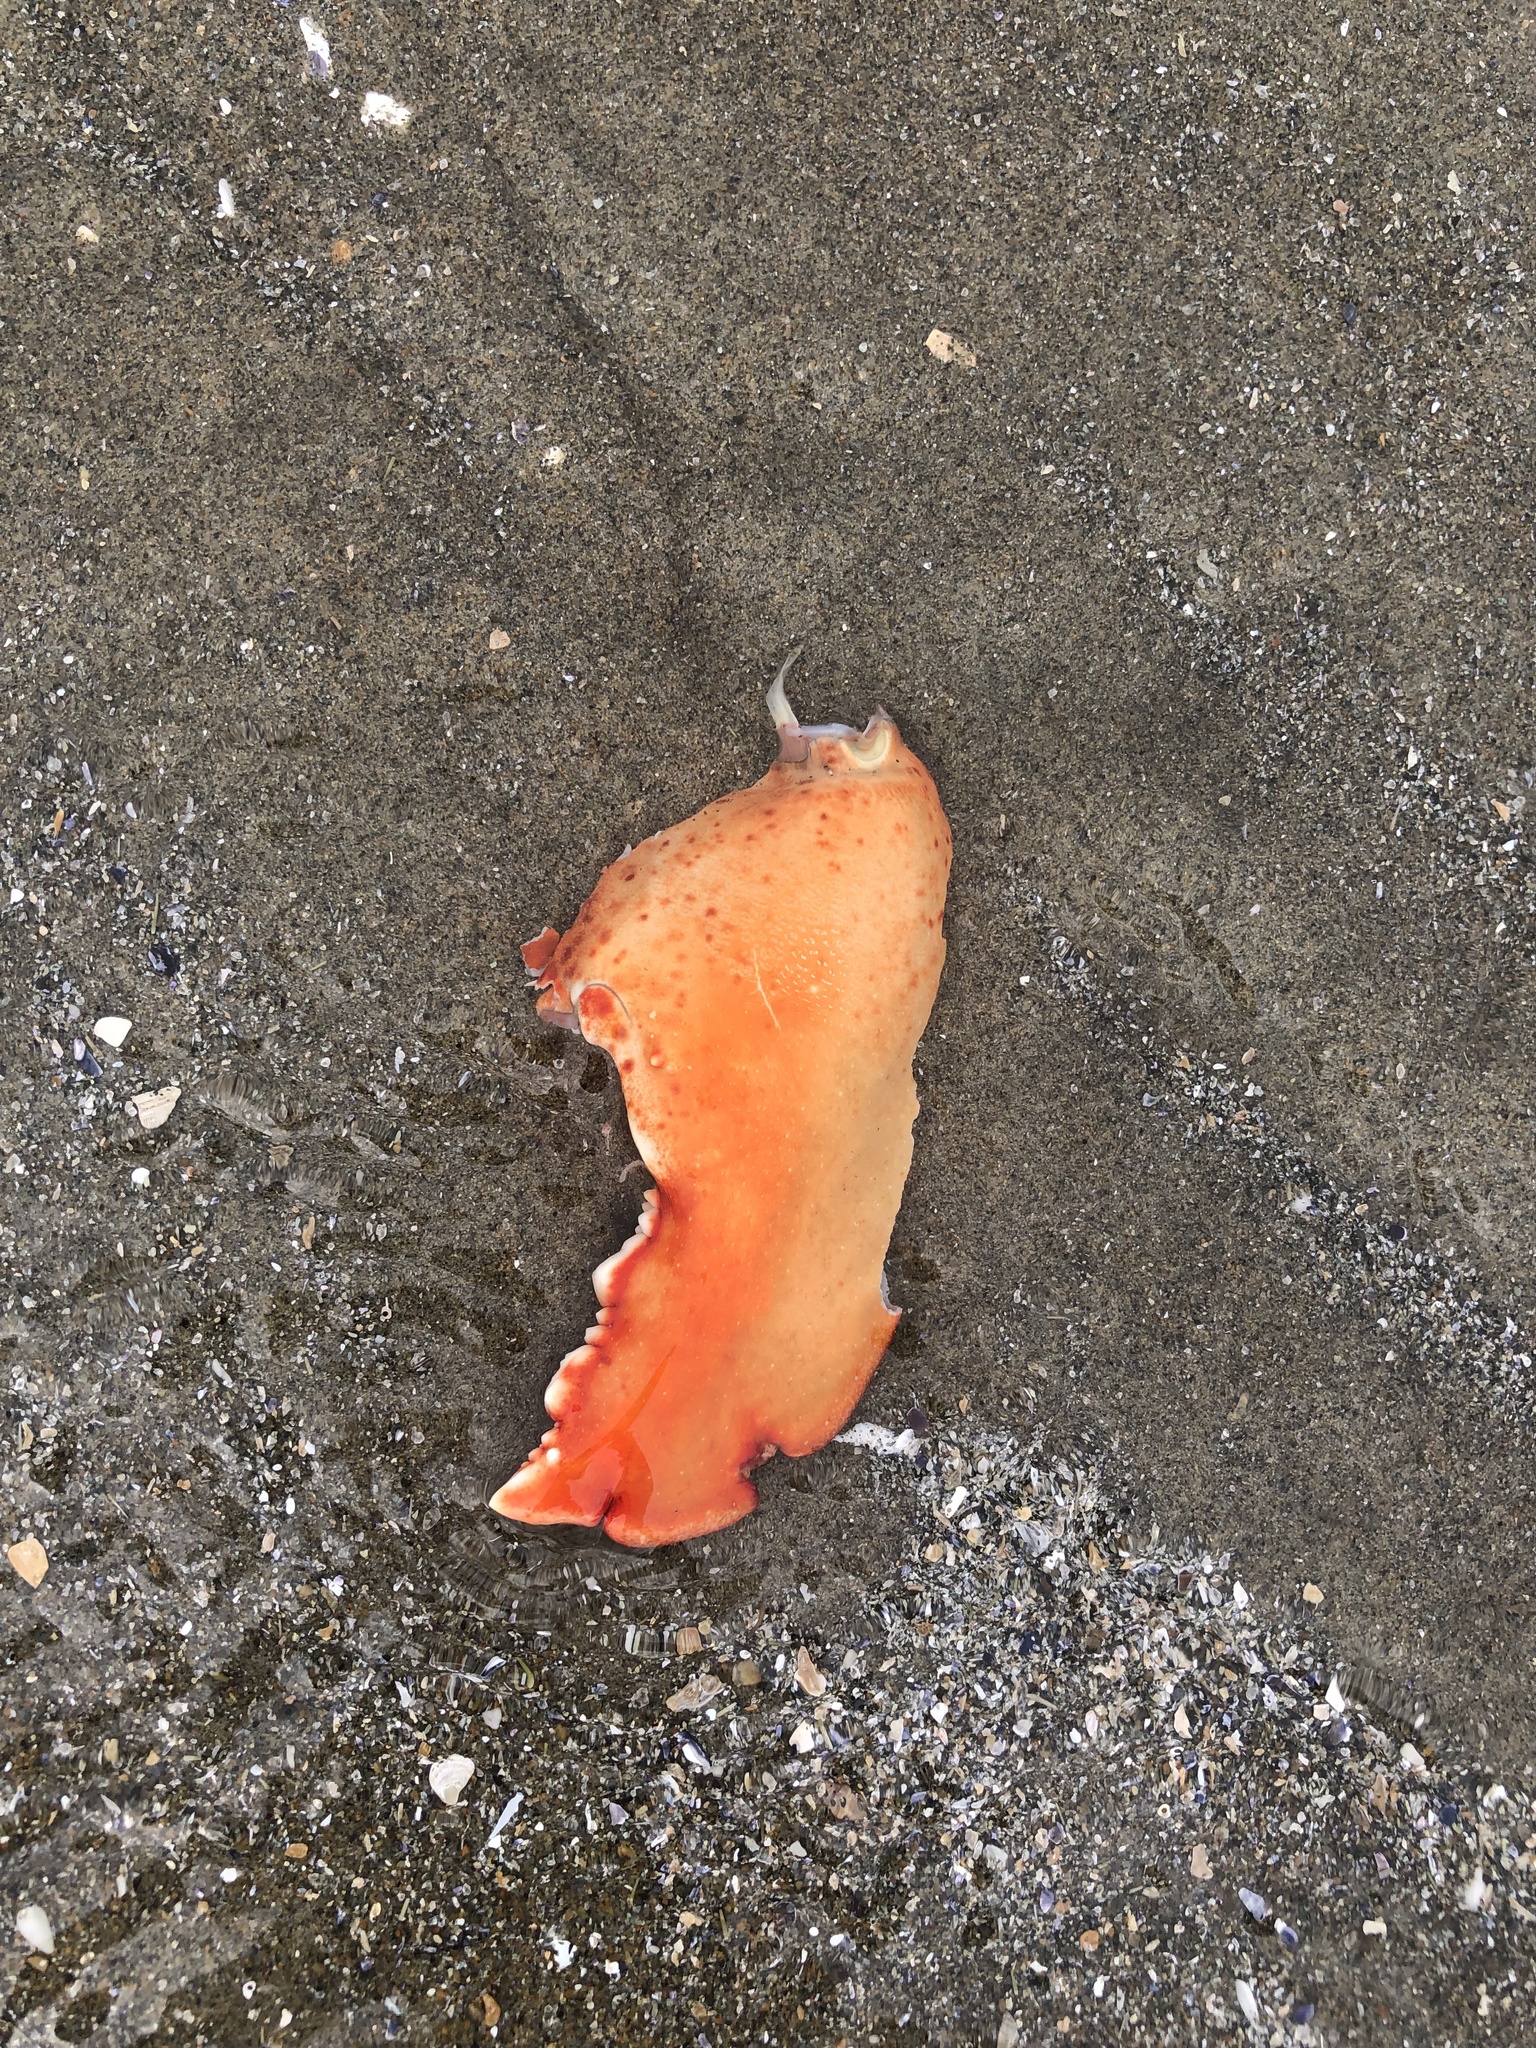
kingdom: Animalia
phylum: Arthropoda
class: Malacostraca
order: Decapoda
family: Nephropidae
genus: Homarus
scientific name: Homarus americanus
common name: American lobster
